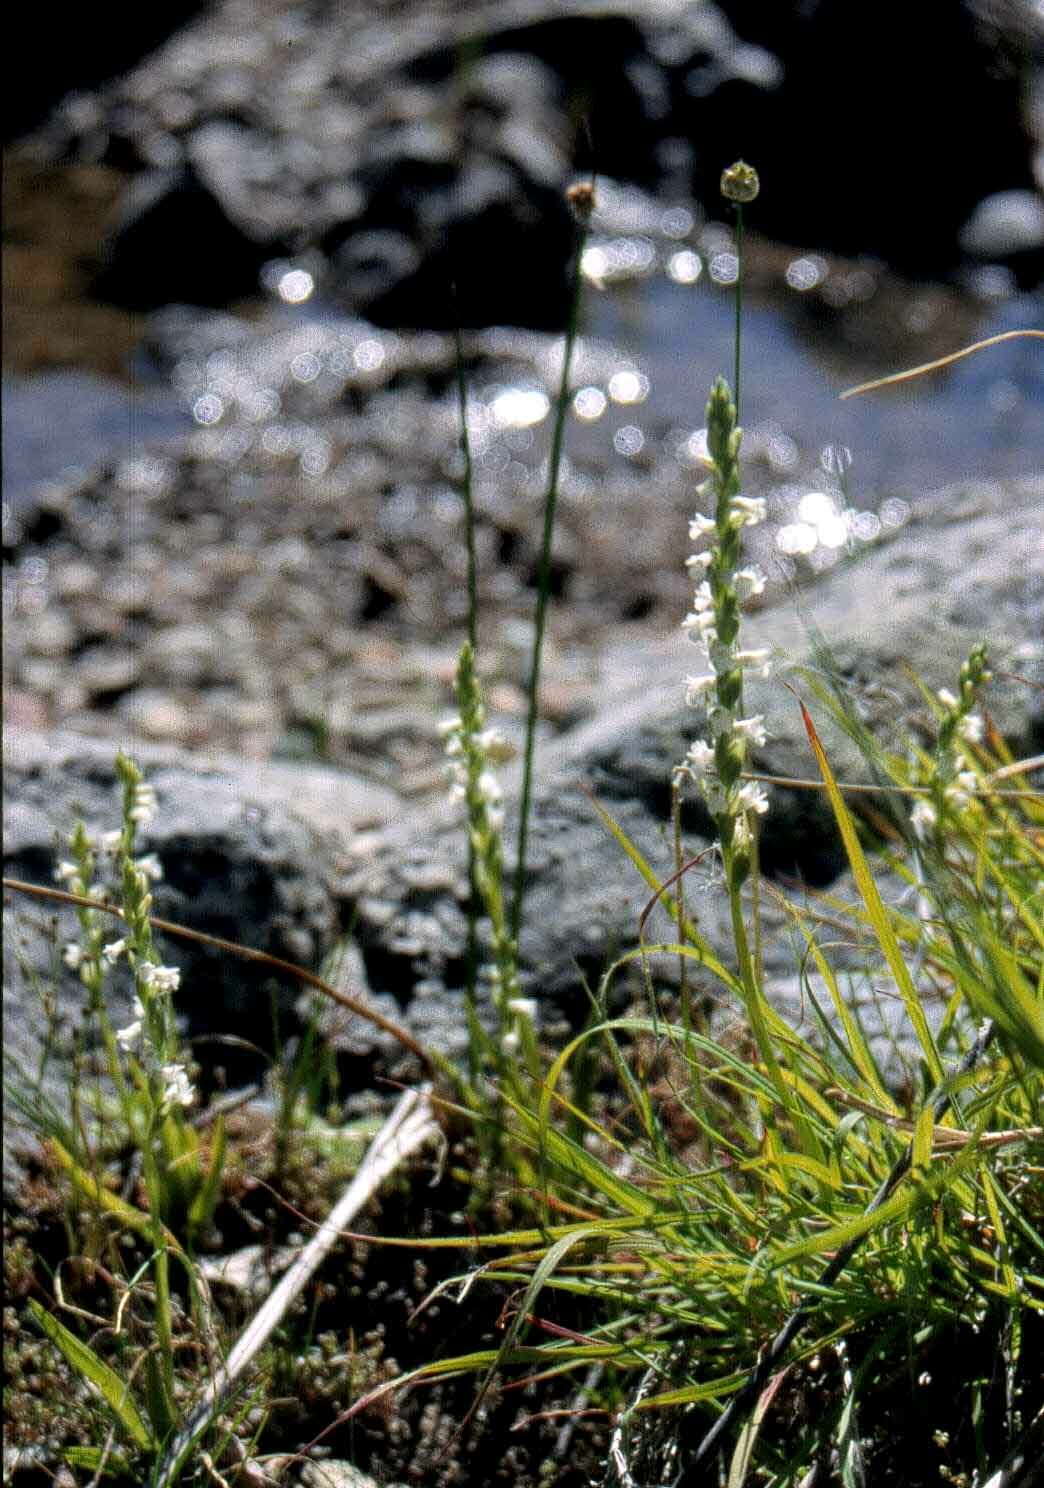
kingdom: Plantae
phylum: Tracheophyta
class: Liliopsida
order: Asparagales
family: Orchidaceae
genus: Spiranthes
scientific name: Spiranthes aestivalis
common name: Summer lady's-tresses
